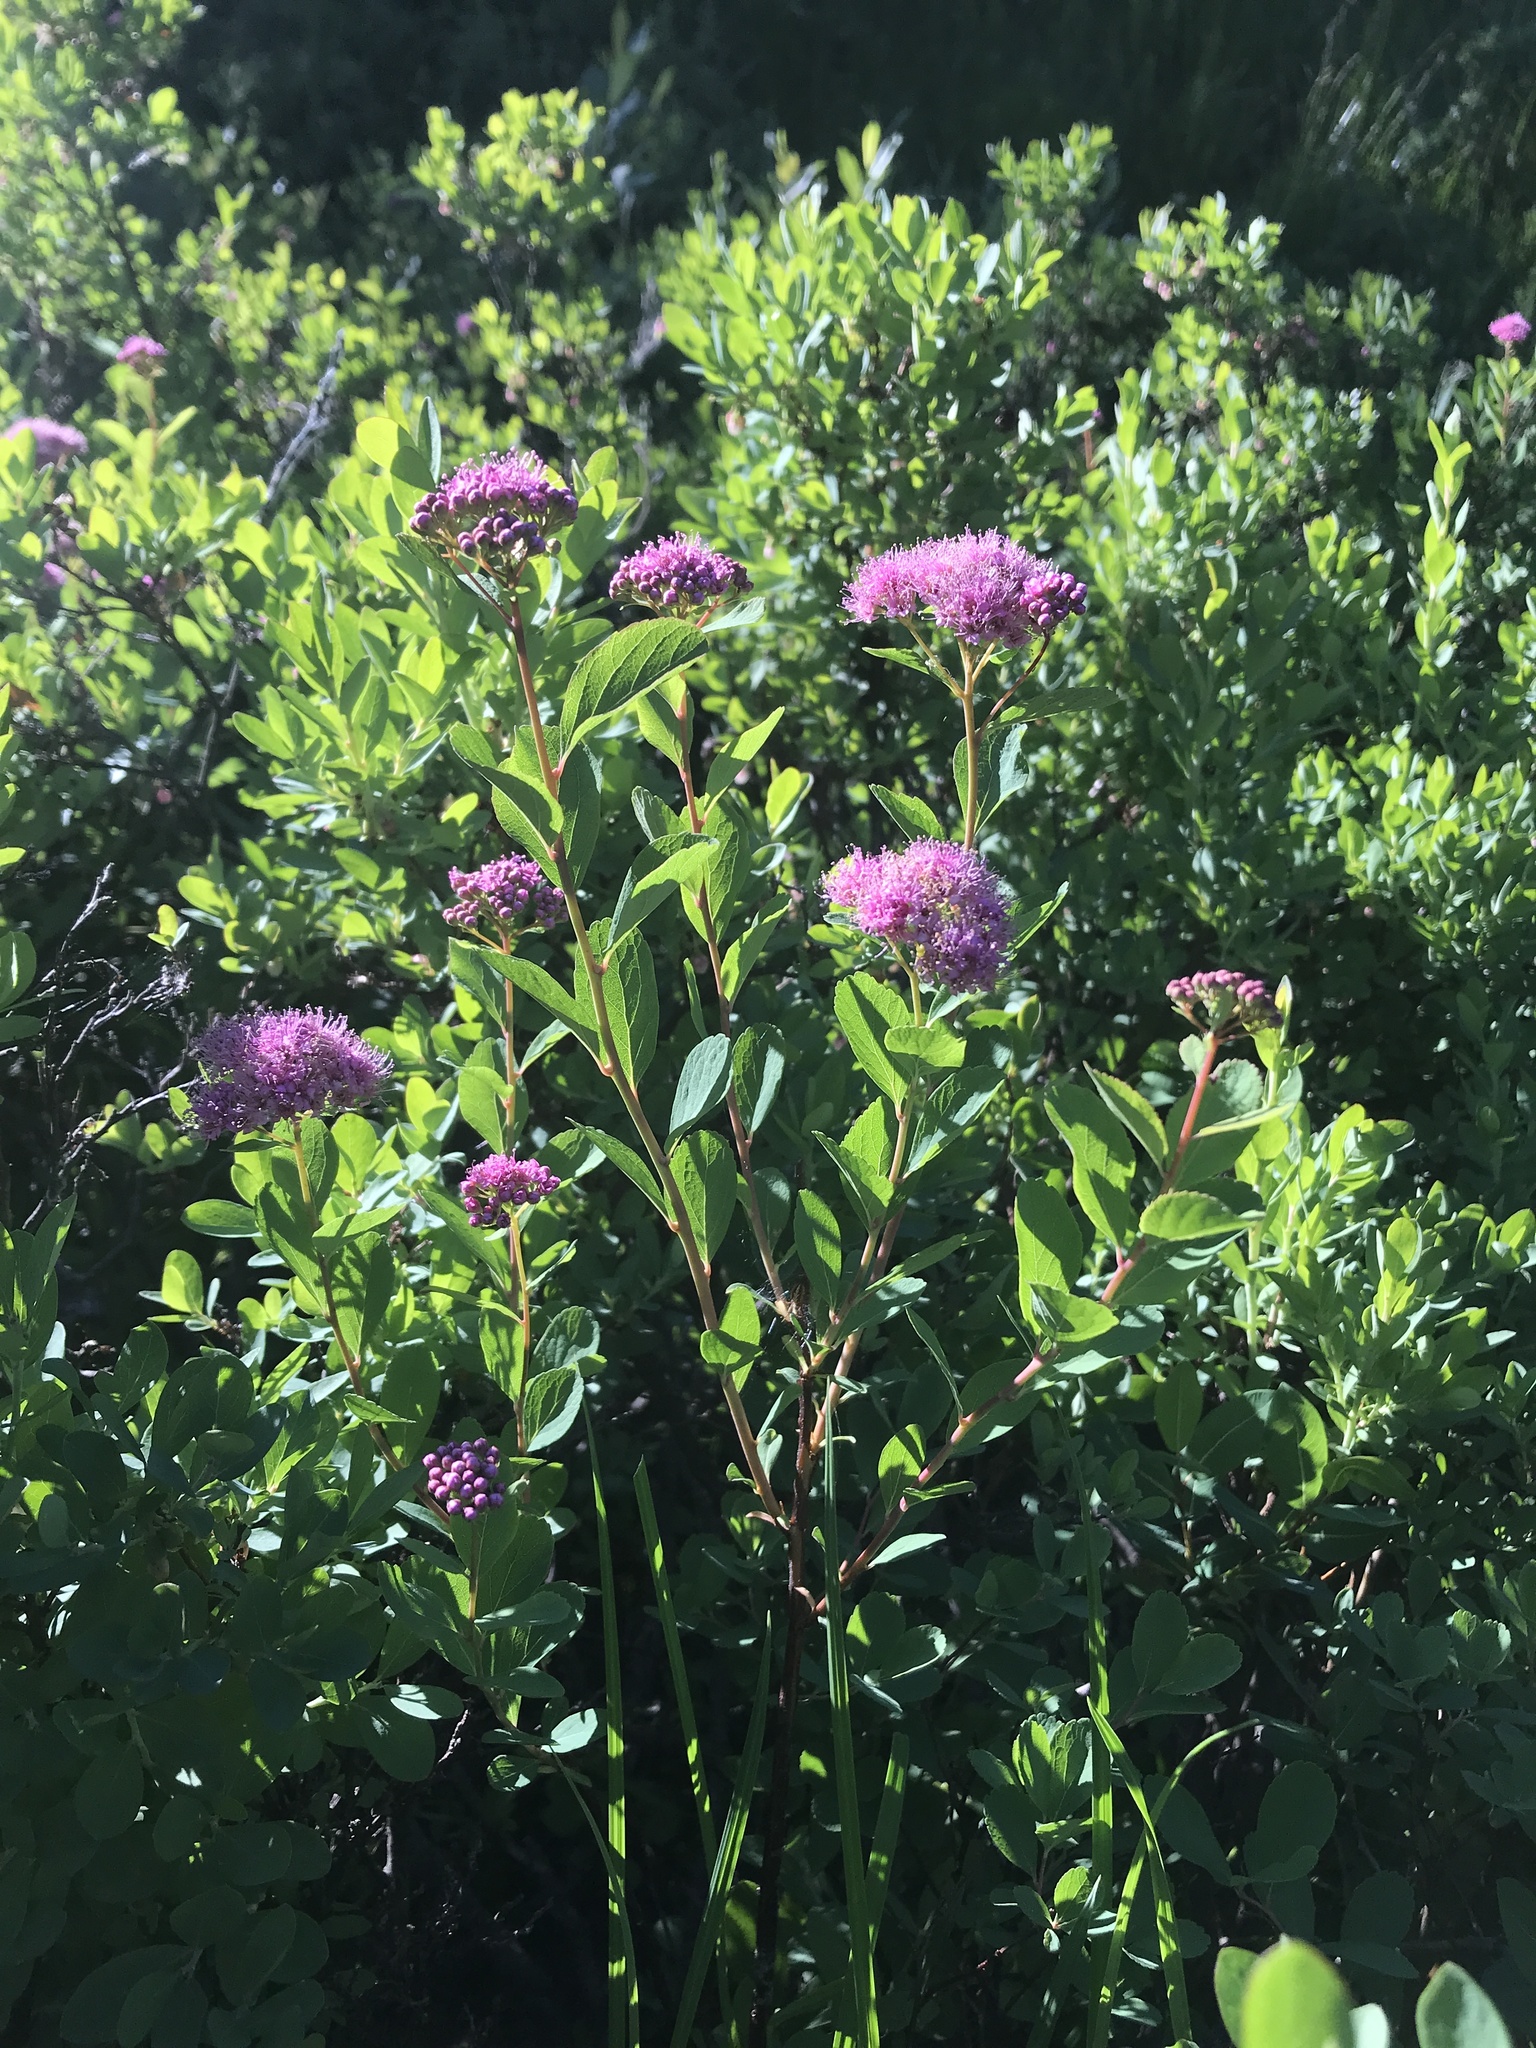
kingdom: Plantae
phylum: Tracheophyta
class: Magnoliopsida
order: Rosales
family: Rosaceae
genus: Spiraea
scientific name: Spiraea splendens
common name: Subalpine meadowsweet
